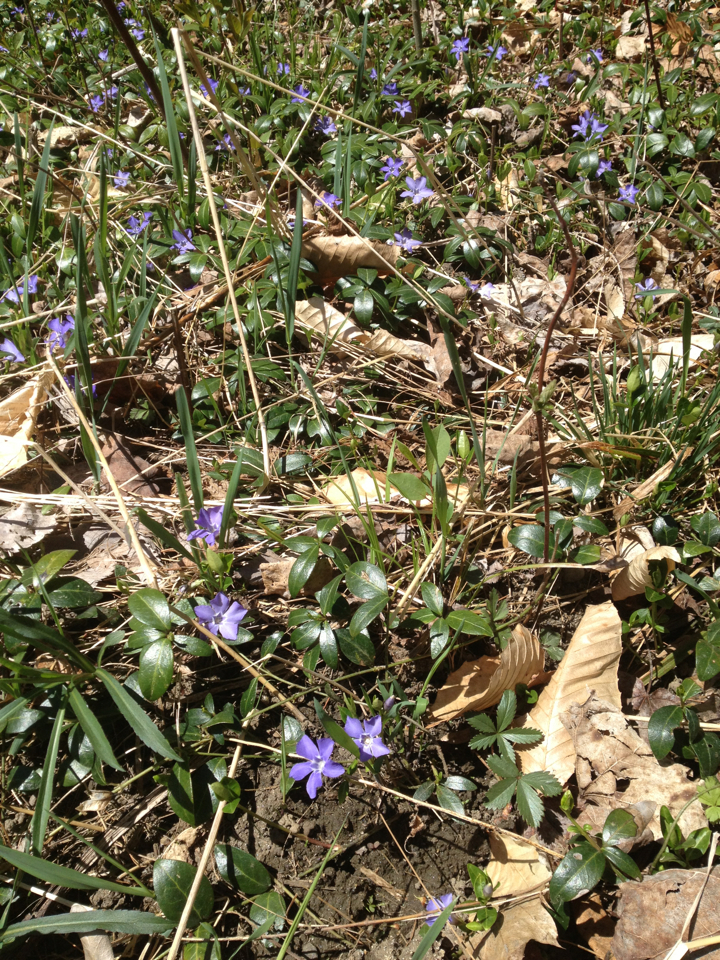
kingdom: Plantae
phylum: Tracheophyta
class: Magnoliopsida
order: Gentianales
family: Apocynaceae
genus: Vinca
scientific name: Vinca minor
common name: Lesser periwinkle
